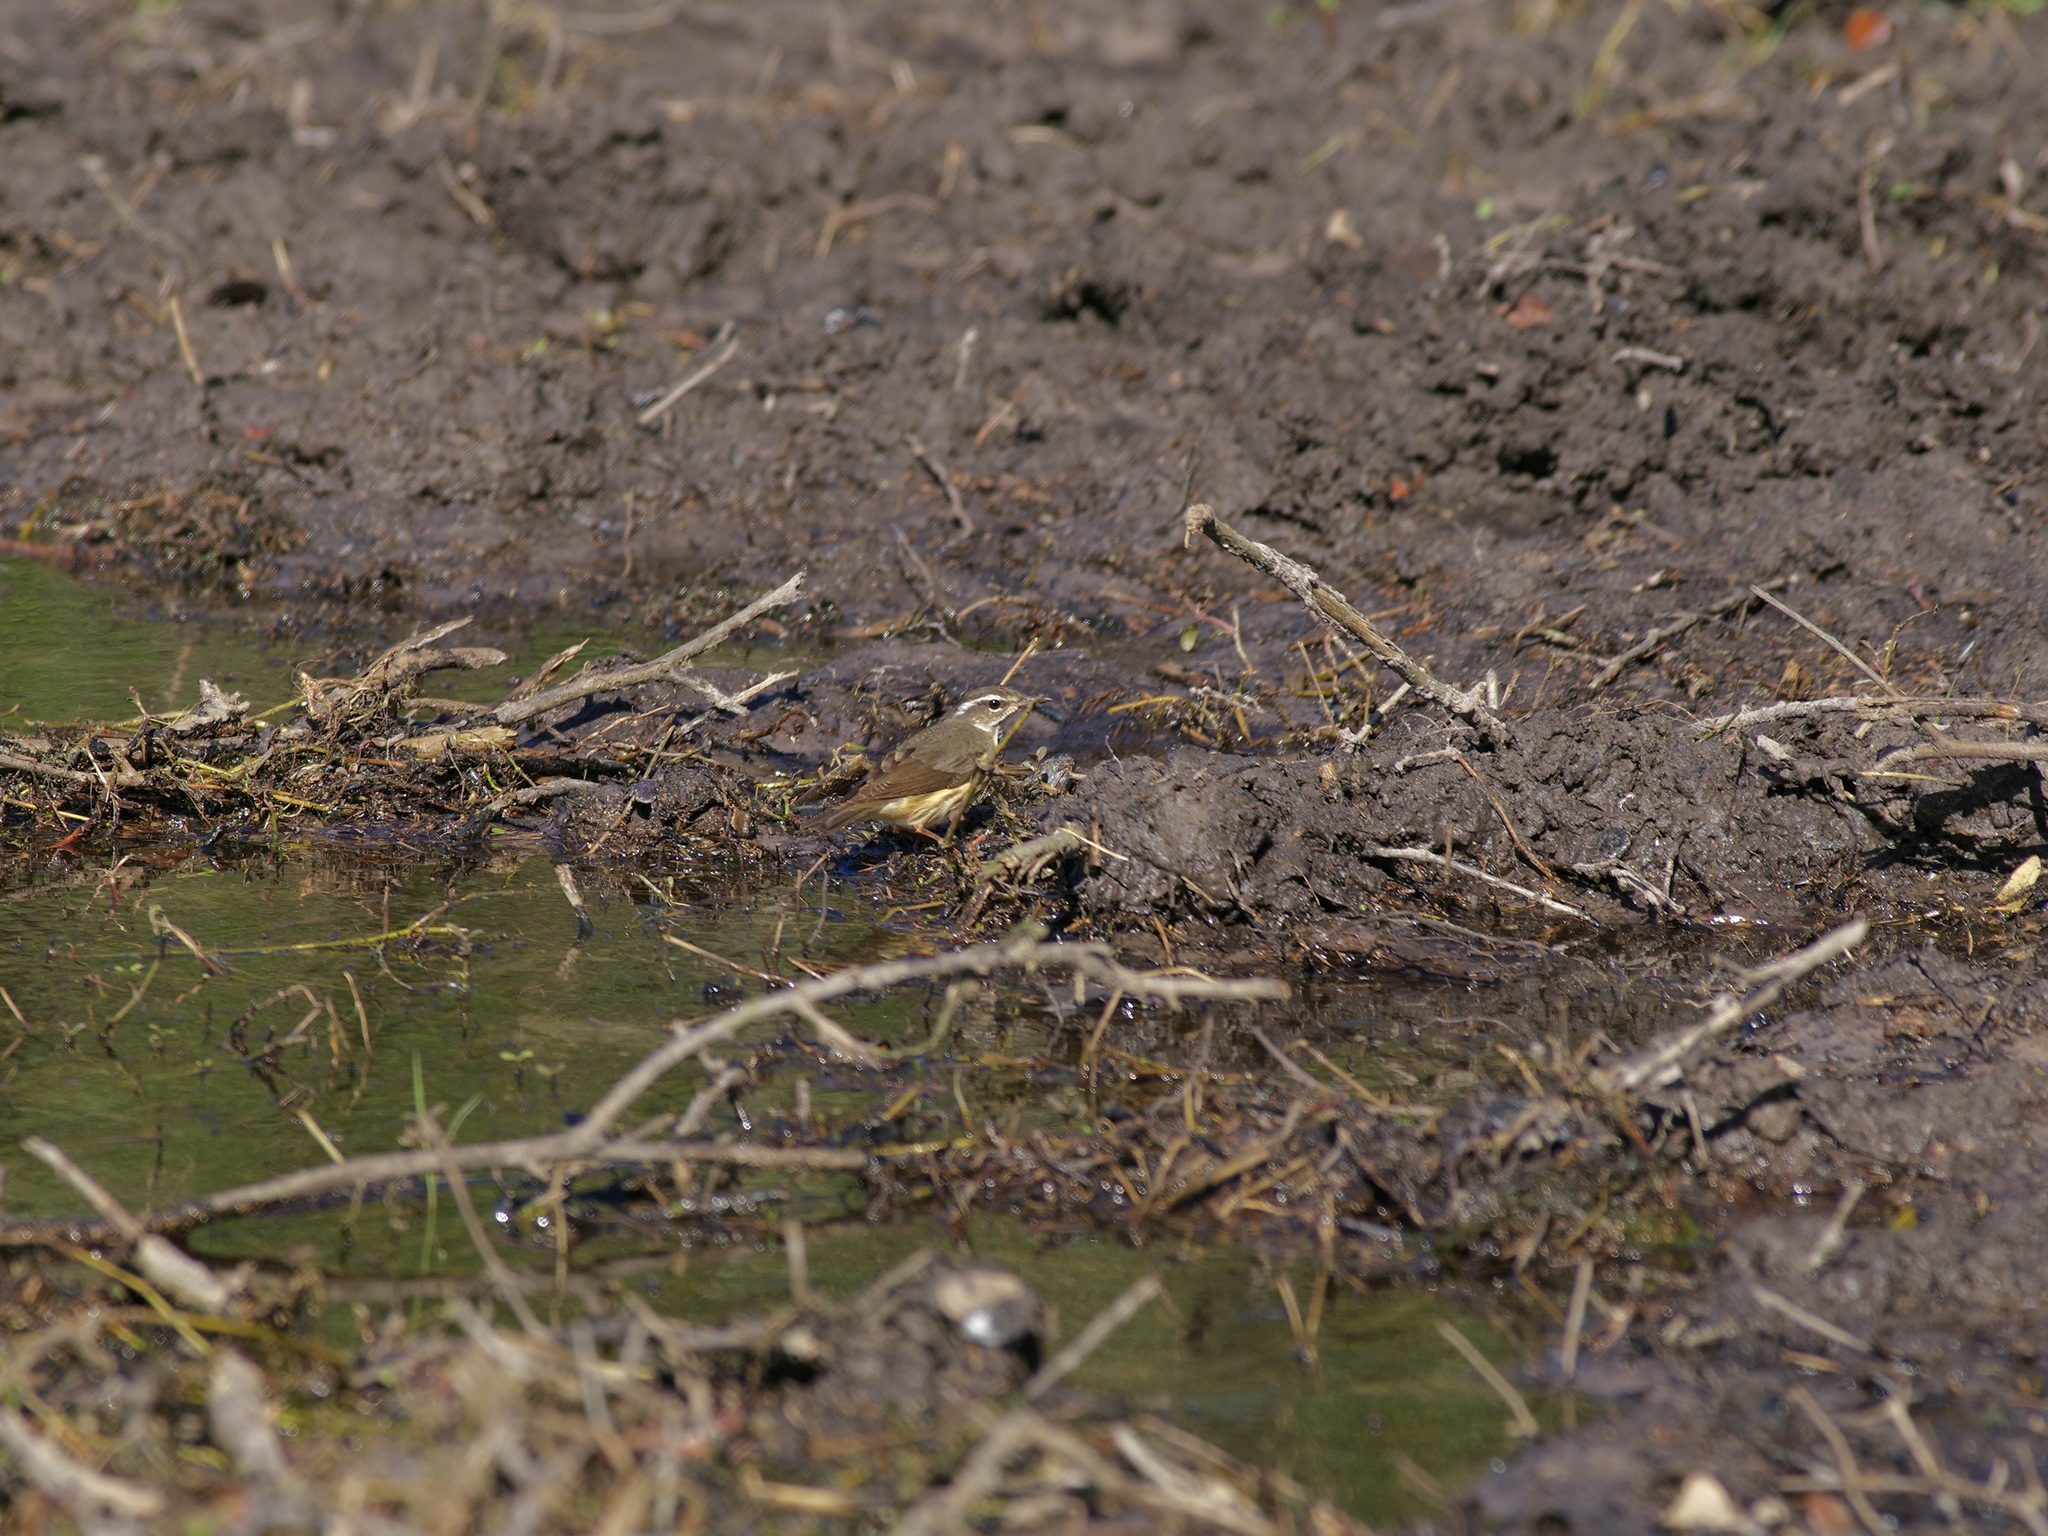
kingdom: Animalia
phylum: Chordata
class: Aves
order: Passeriformes
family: Parulidae
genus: Parkesia
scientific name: Parkesia motacilla
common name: Louisiana waterthrush
